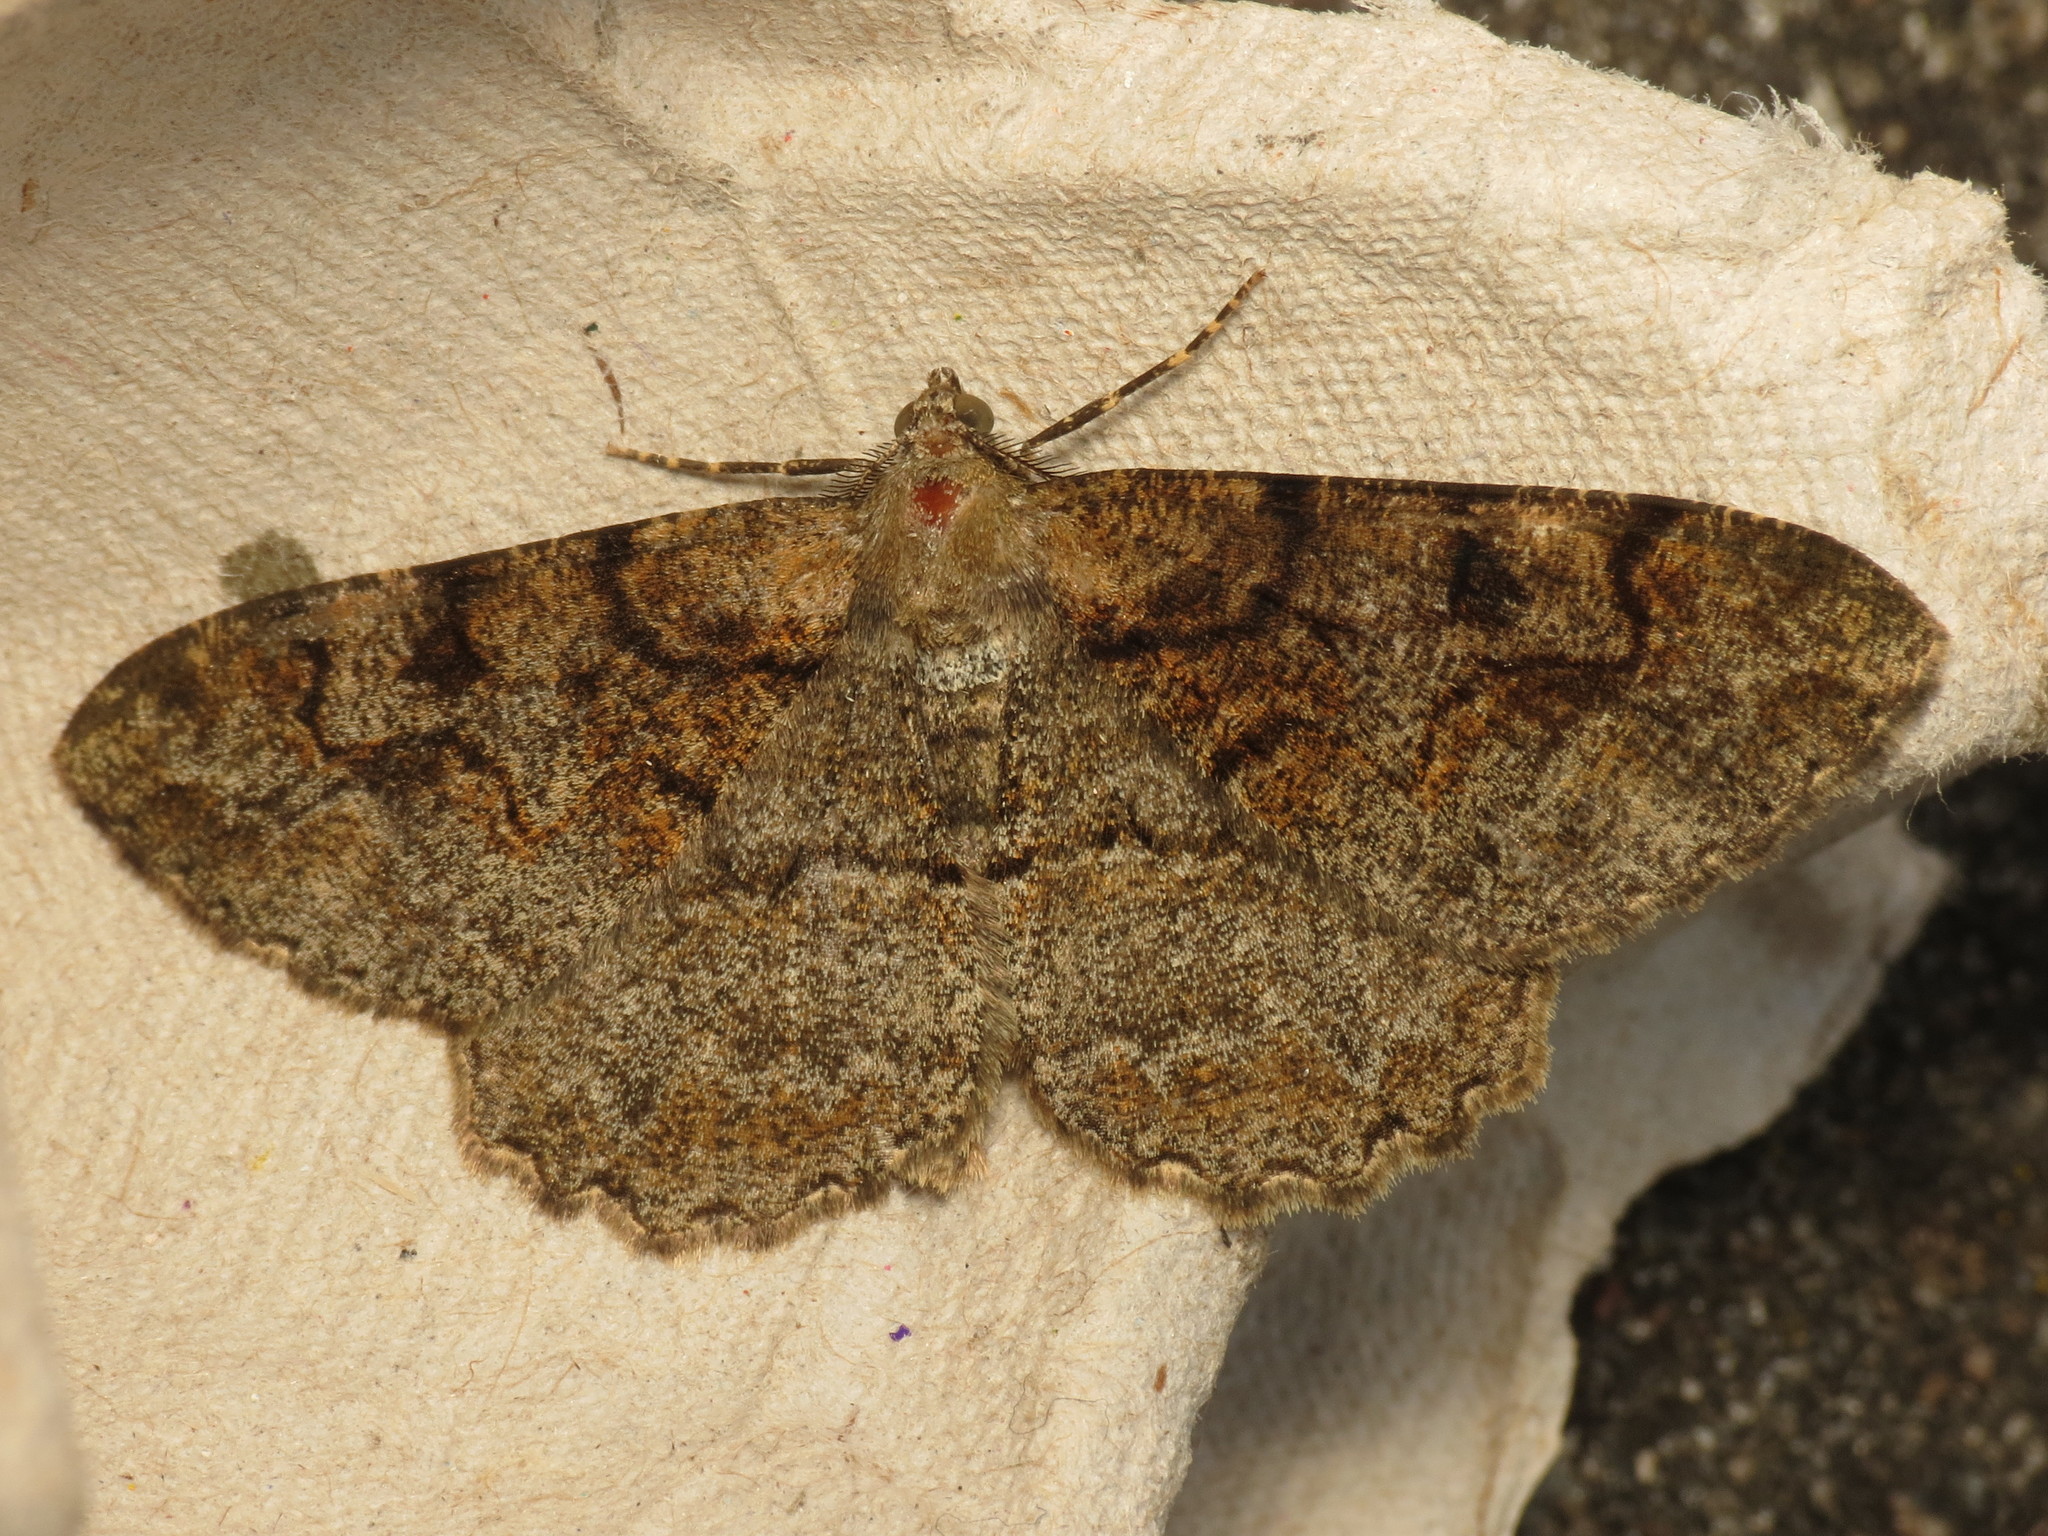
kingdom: Animalia
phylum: Arthropoda
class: Insecta
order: Lepidoptera
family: Geometridae
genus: Alcis
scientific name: Alcis repandata
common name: Mottled beauty
